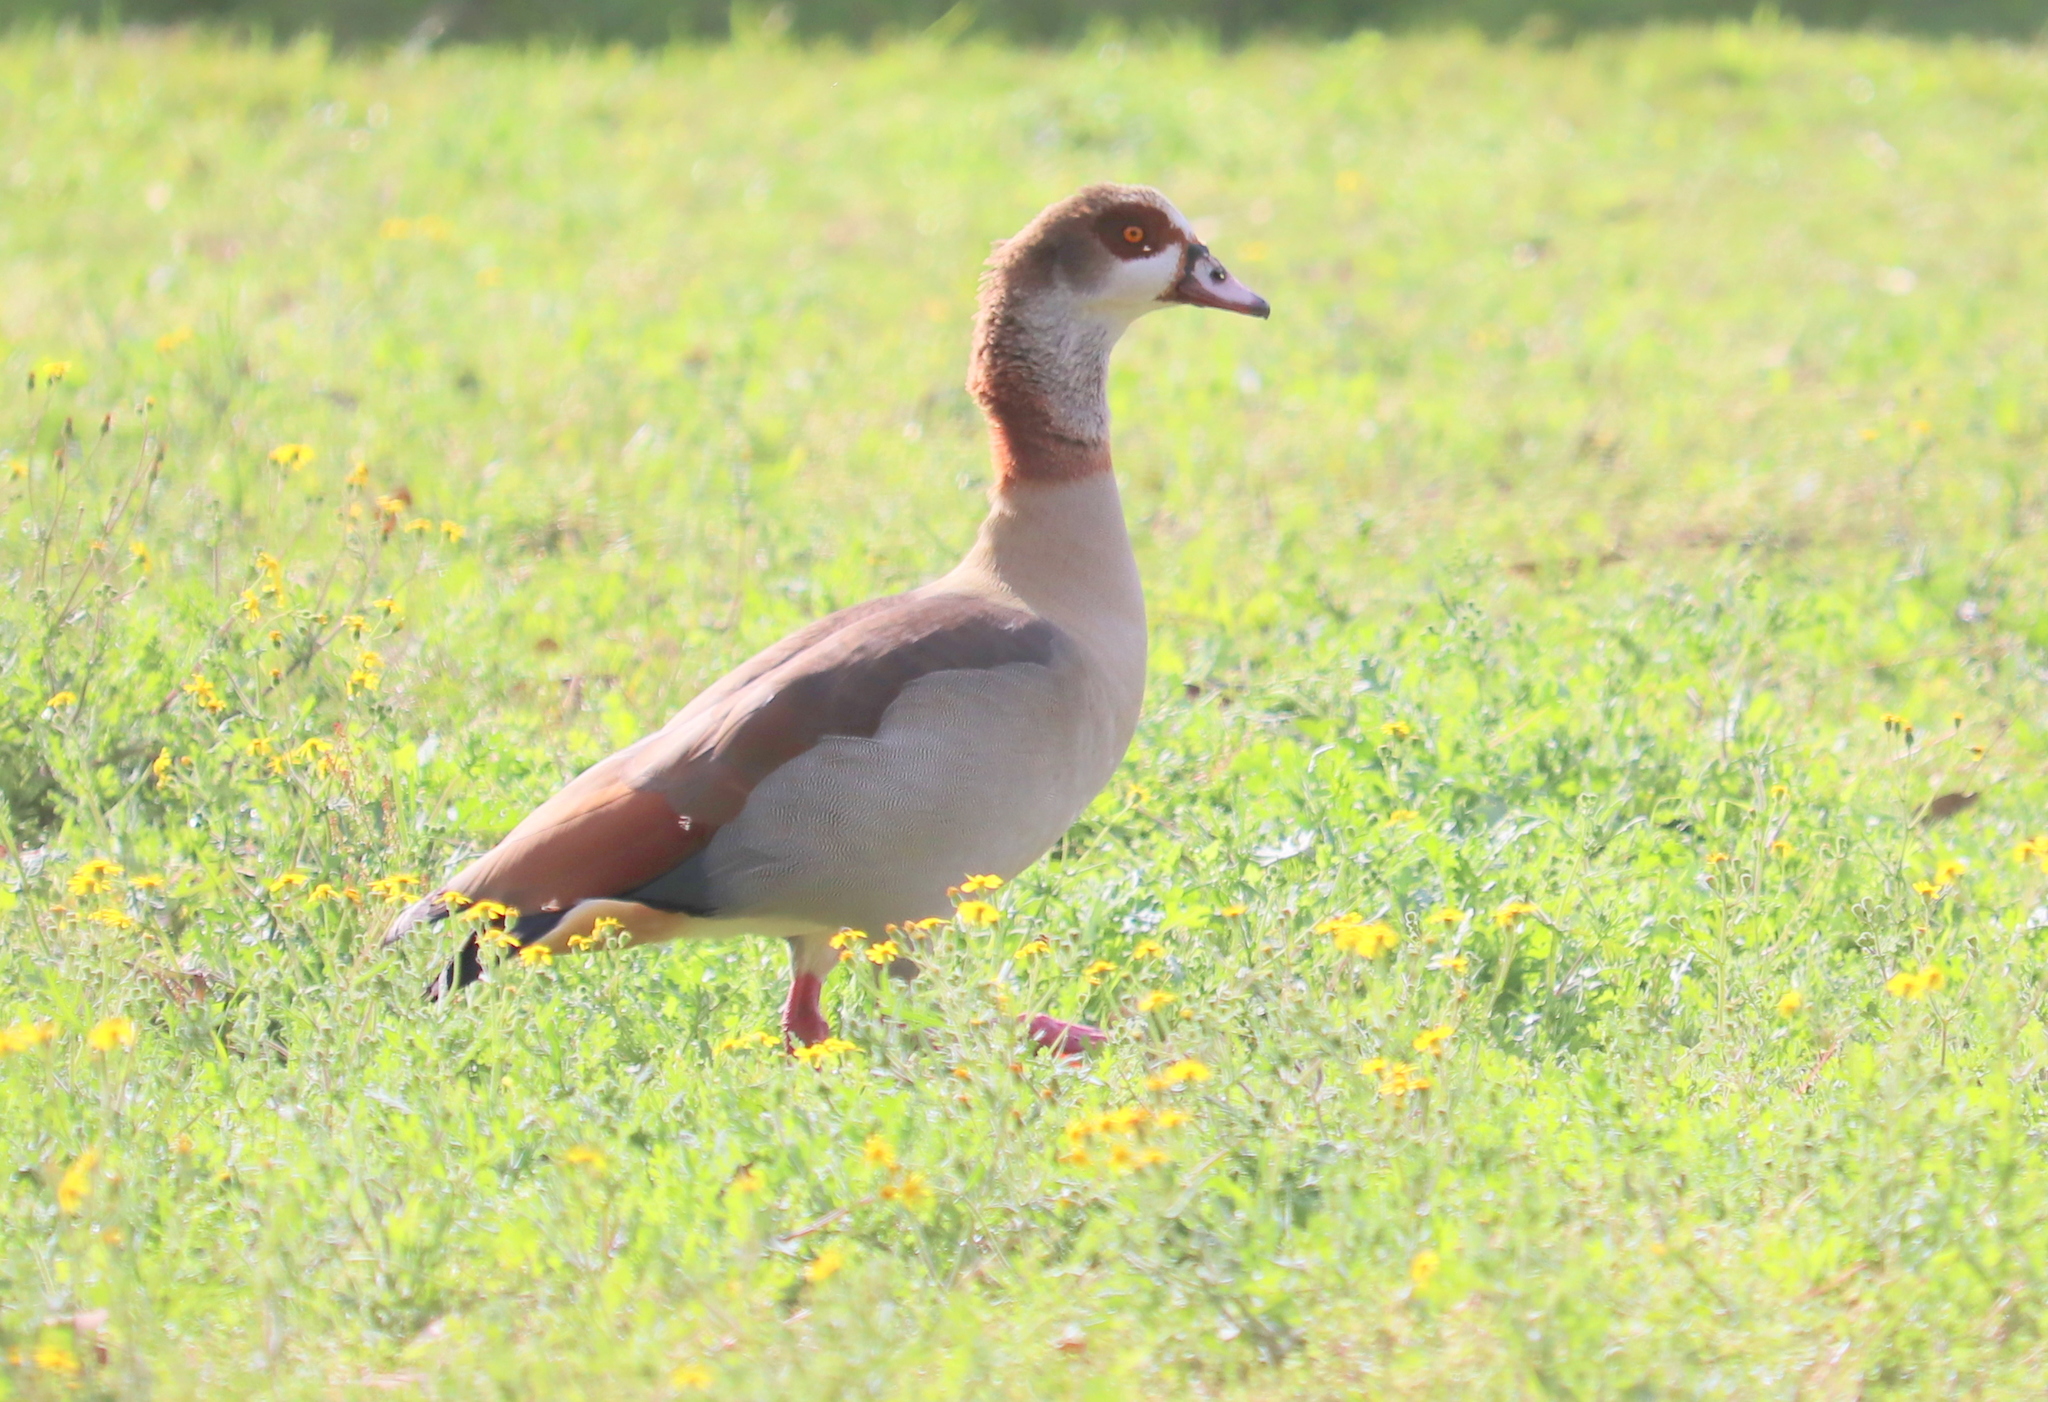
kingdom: Animalia
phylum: Chordata
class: Aves
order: Anseriformes
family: Anatidae
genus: Alopochen
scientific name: Alopochen aegyptiaca
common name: Egyptian goose
